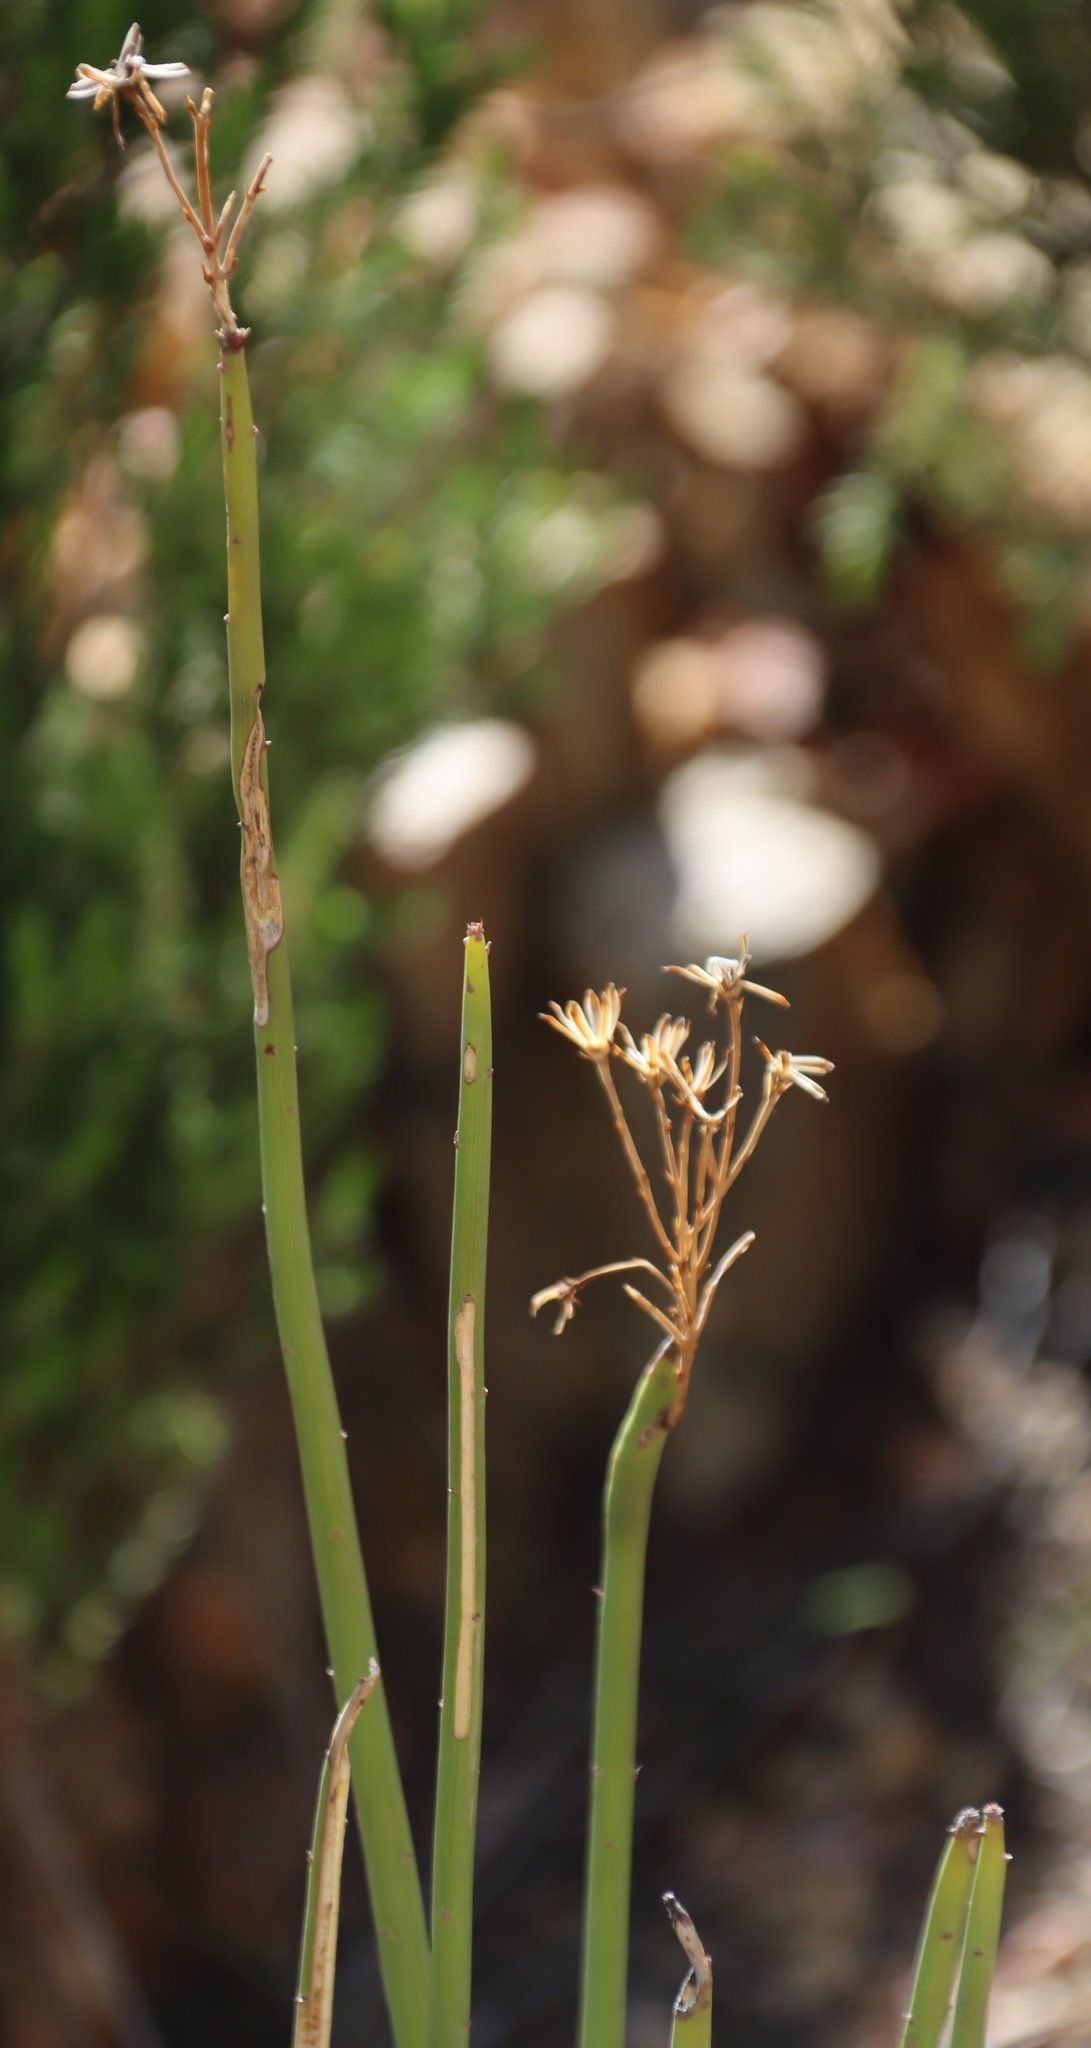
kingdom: Plantae
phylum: Tracheophyta
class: Magnoliopsida
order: Asterales
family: Asteraceae
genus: Senecio
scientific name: Senecio junceus
